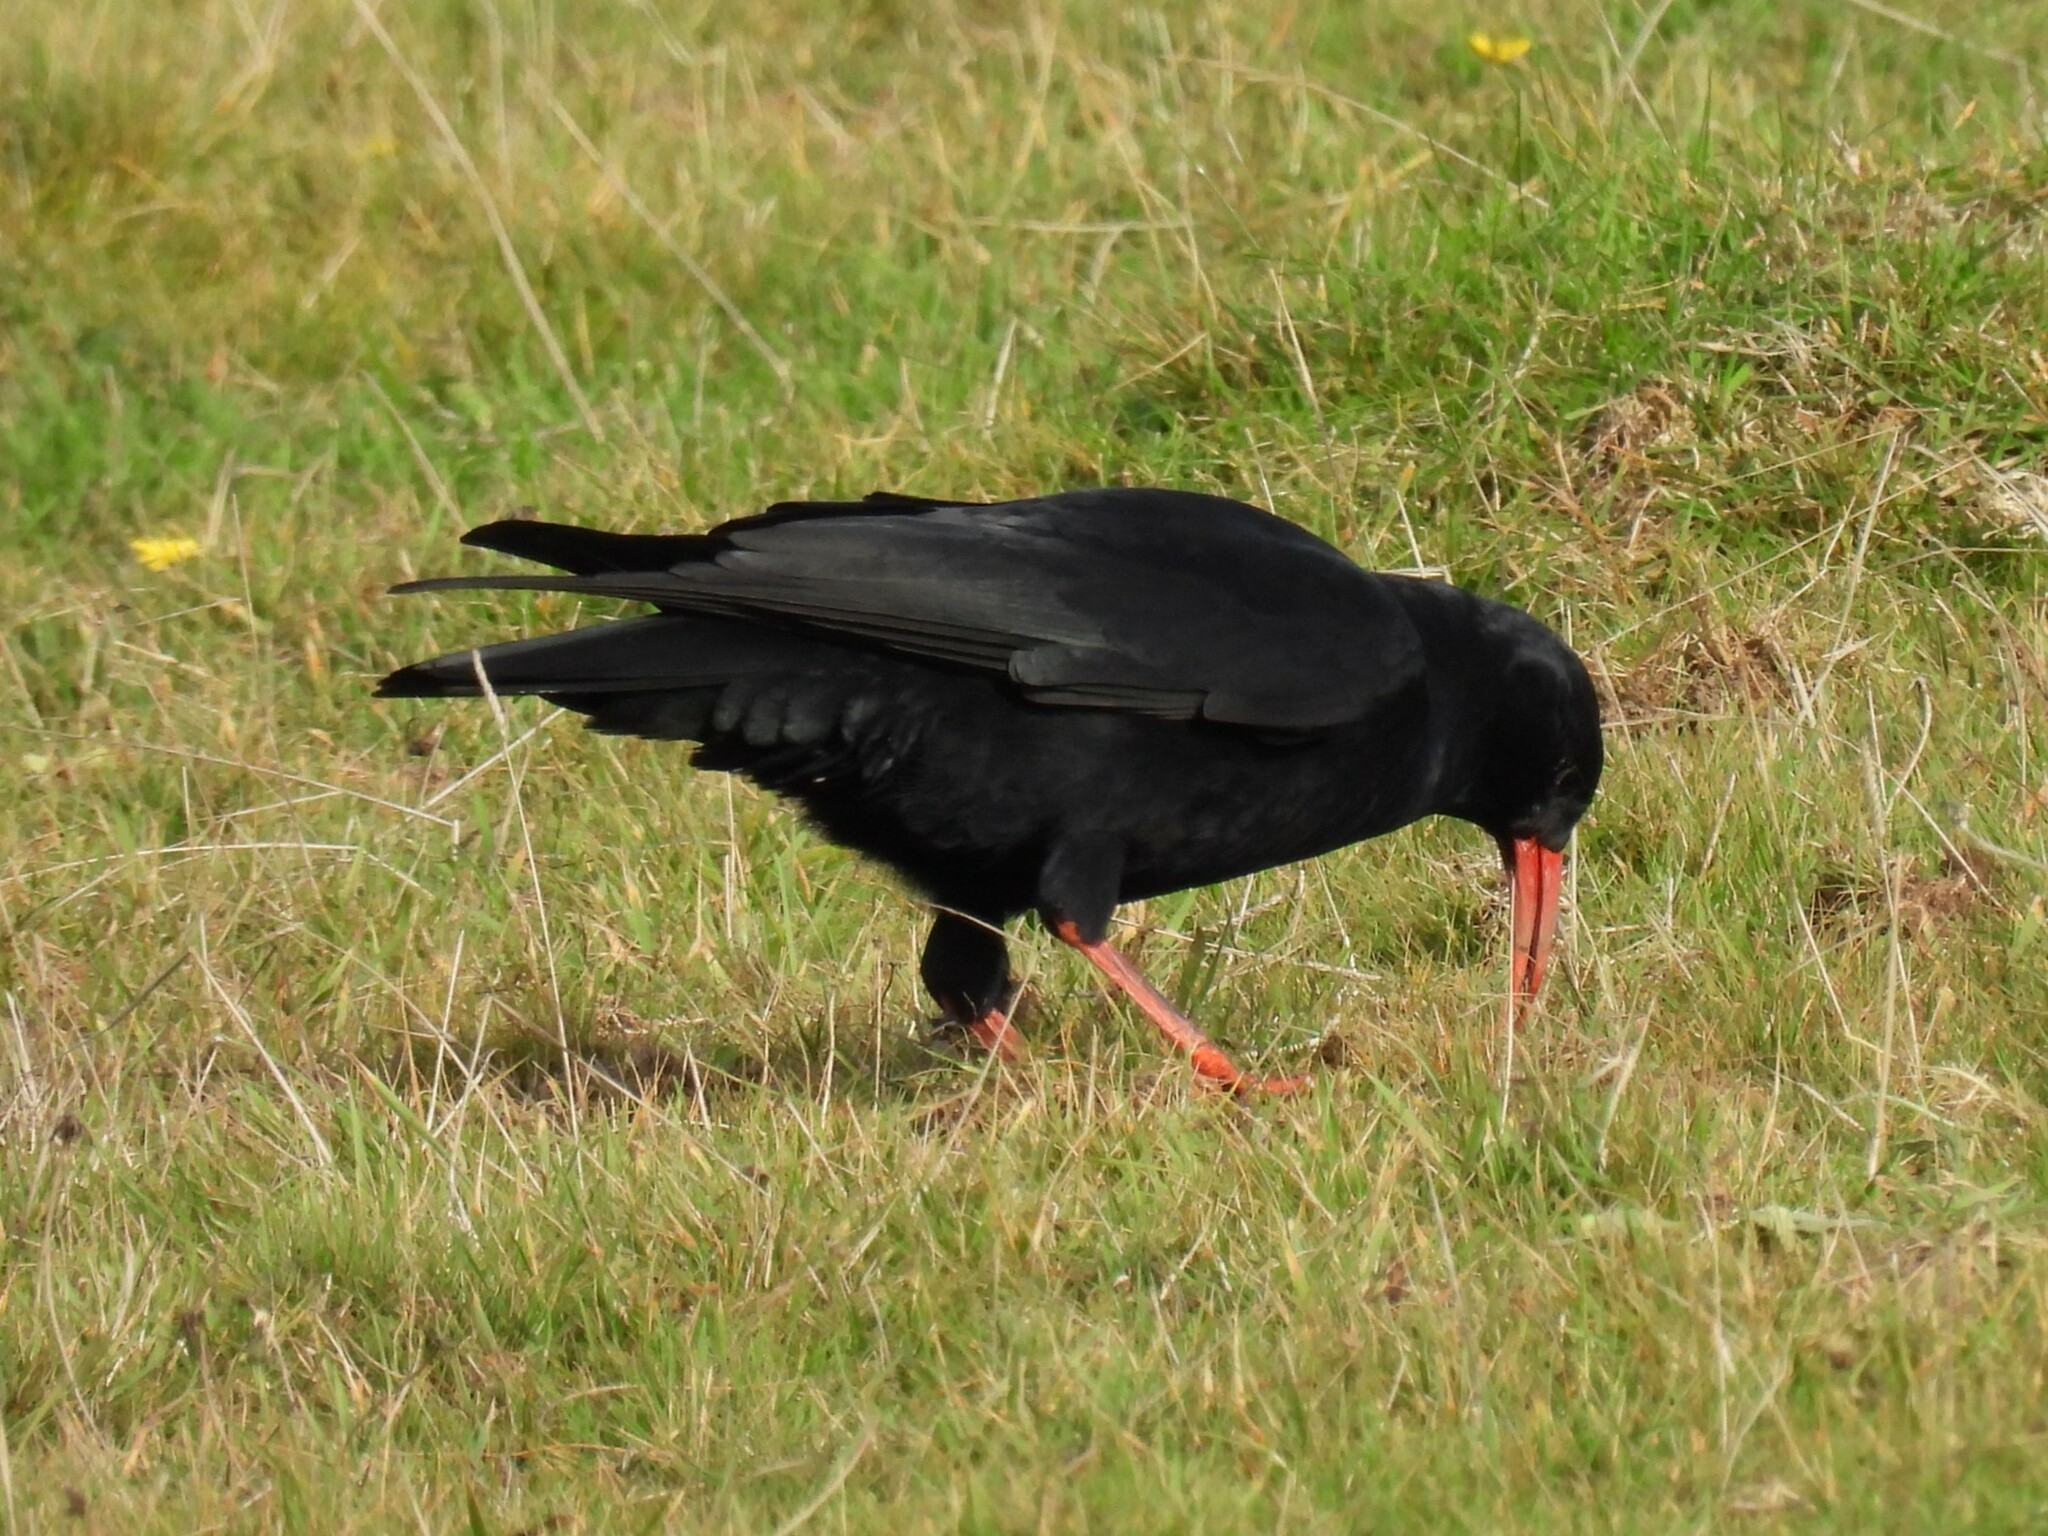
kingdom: Animalia
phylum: Chordata
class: Aves
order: Passeriformes
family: Corvidae
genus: Pyrrhocorax
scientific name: Pyrrhocorax pyrrhocorax
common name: Red-billed chough
